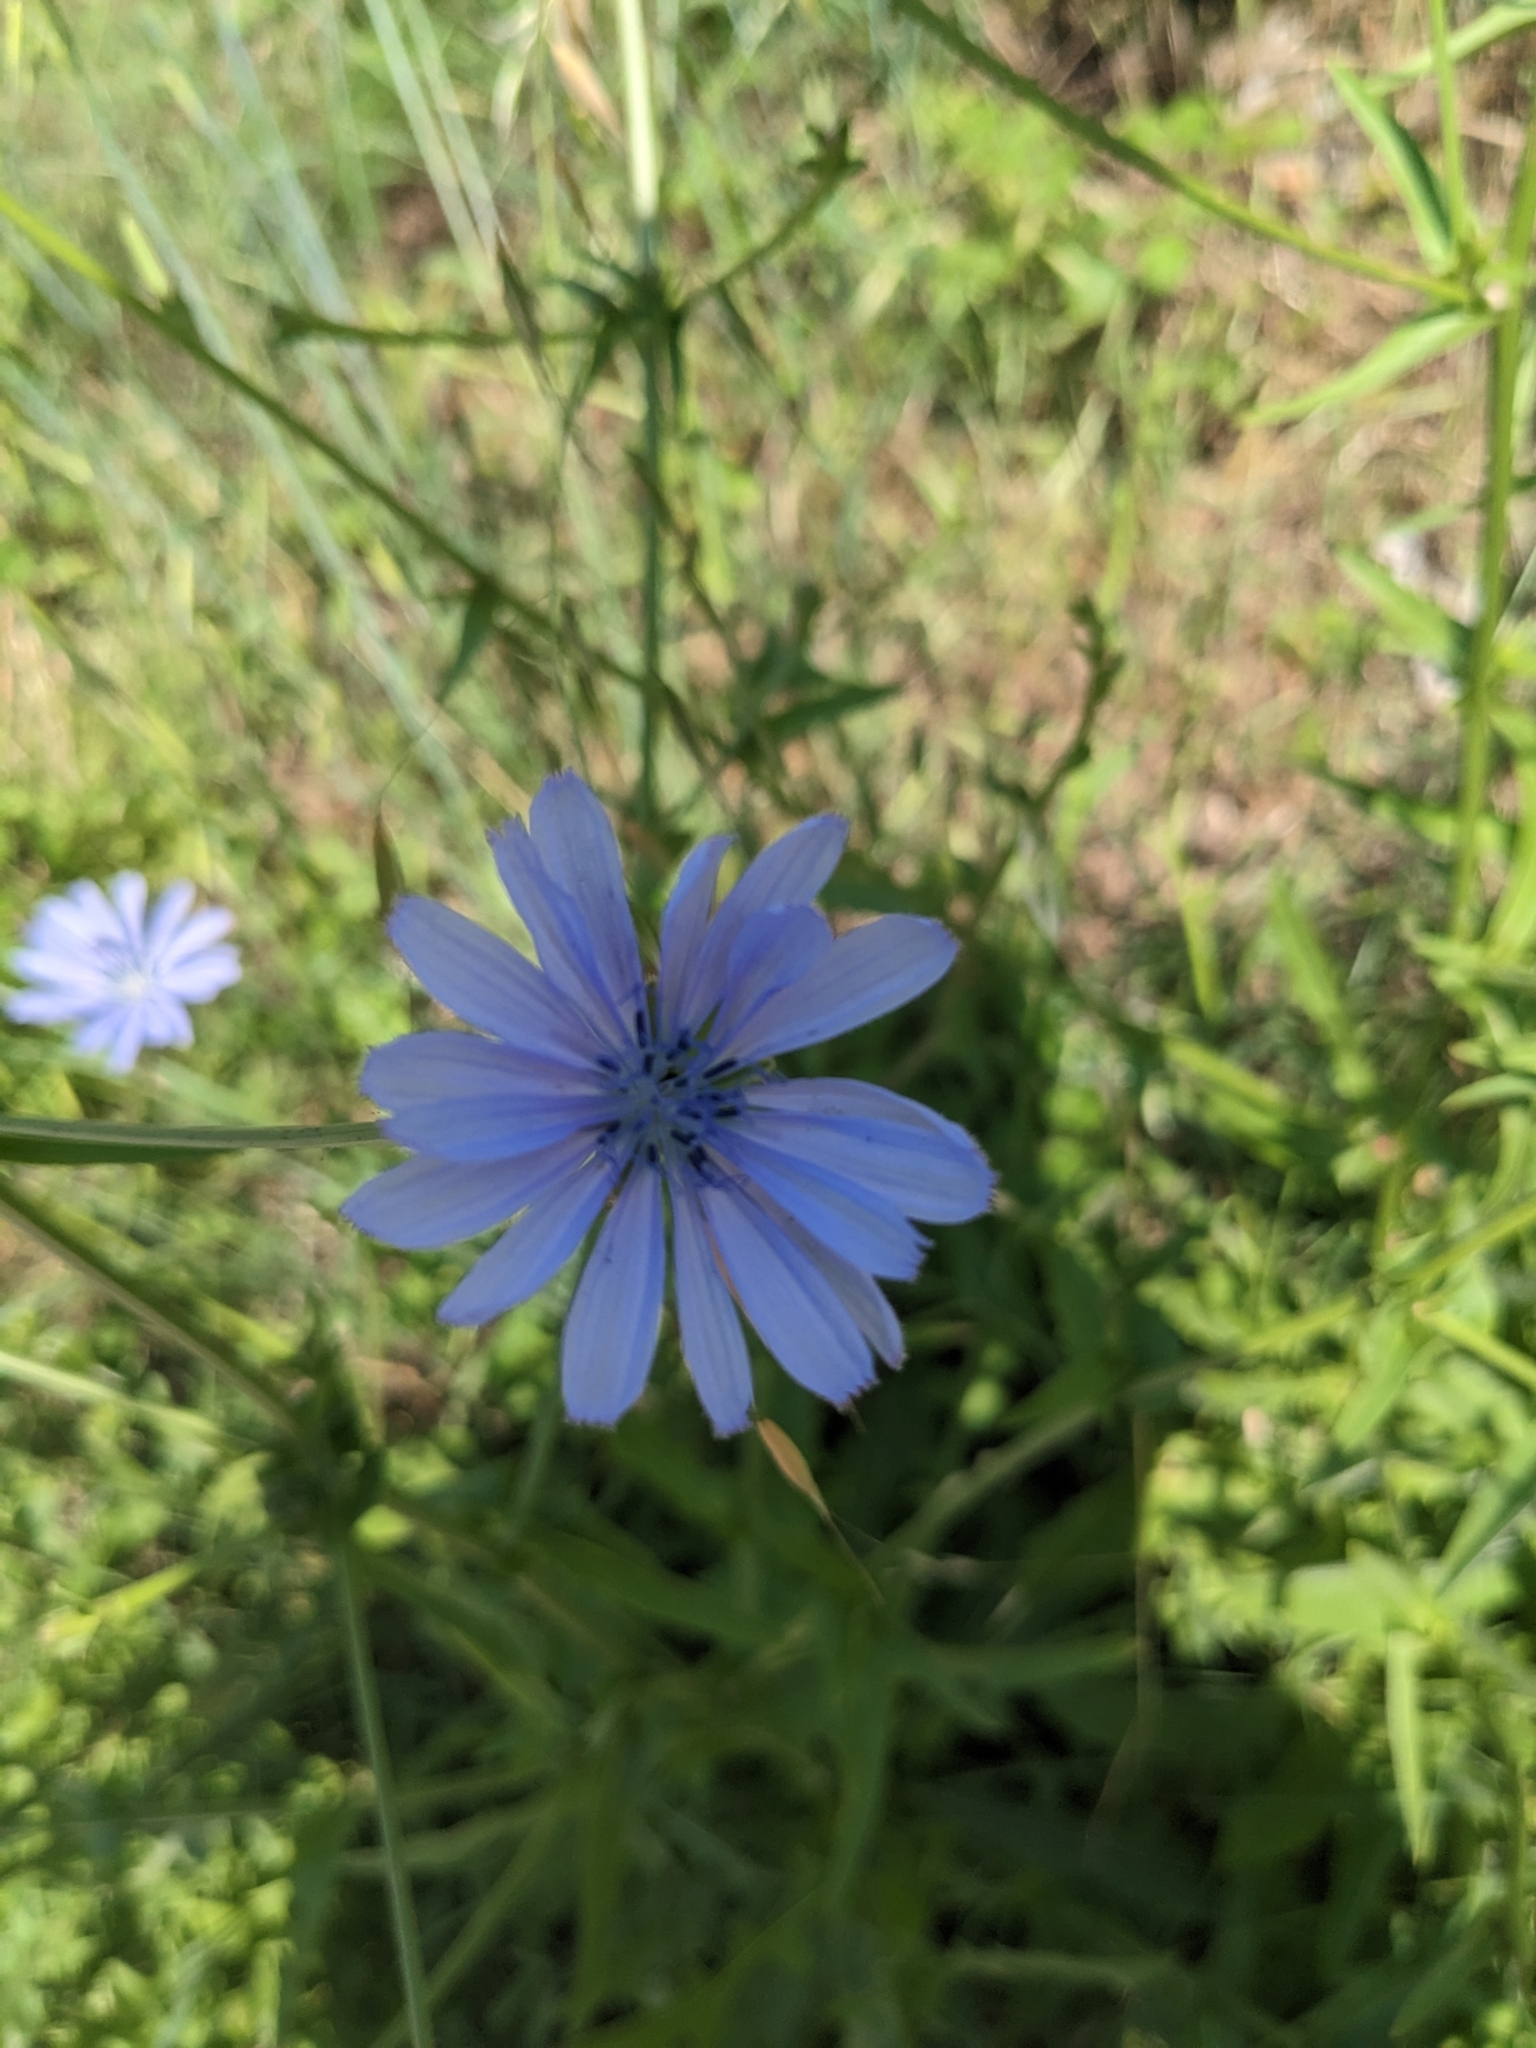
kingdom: Plantae
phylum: Tracheophyta
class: Magnoliopsida
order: Asterales
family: Asteraceae
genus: Cichorium
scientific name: Cichorium intybus
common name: Chicory
